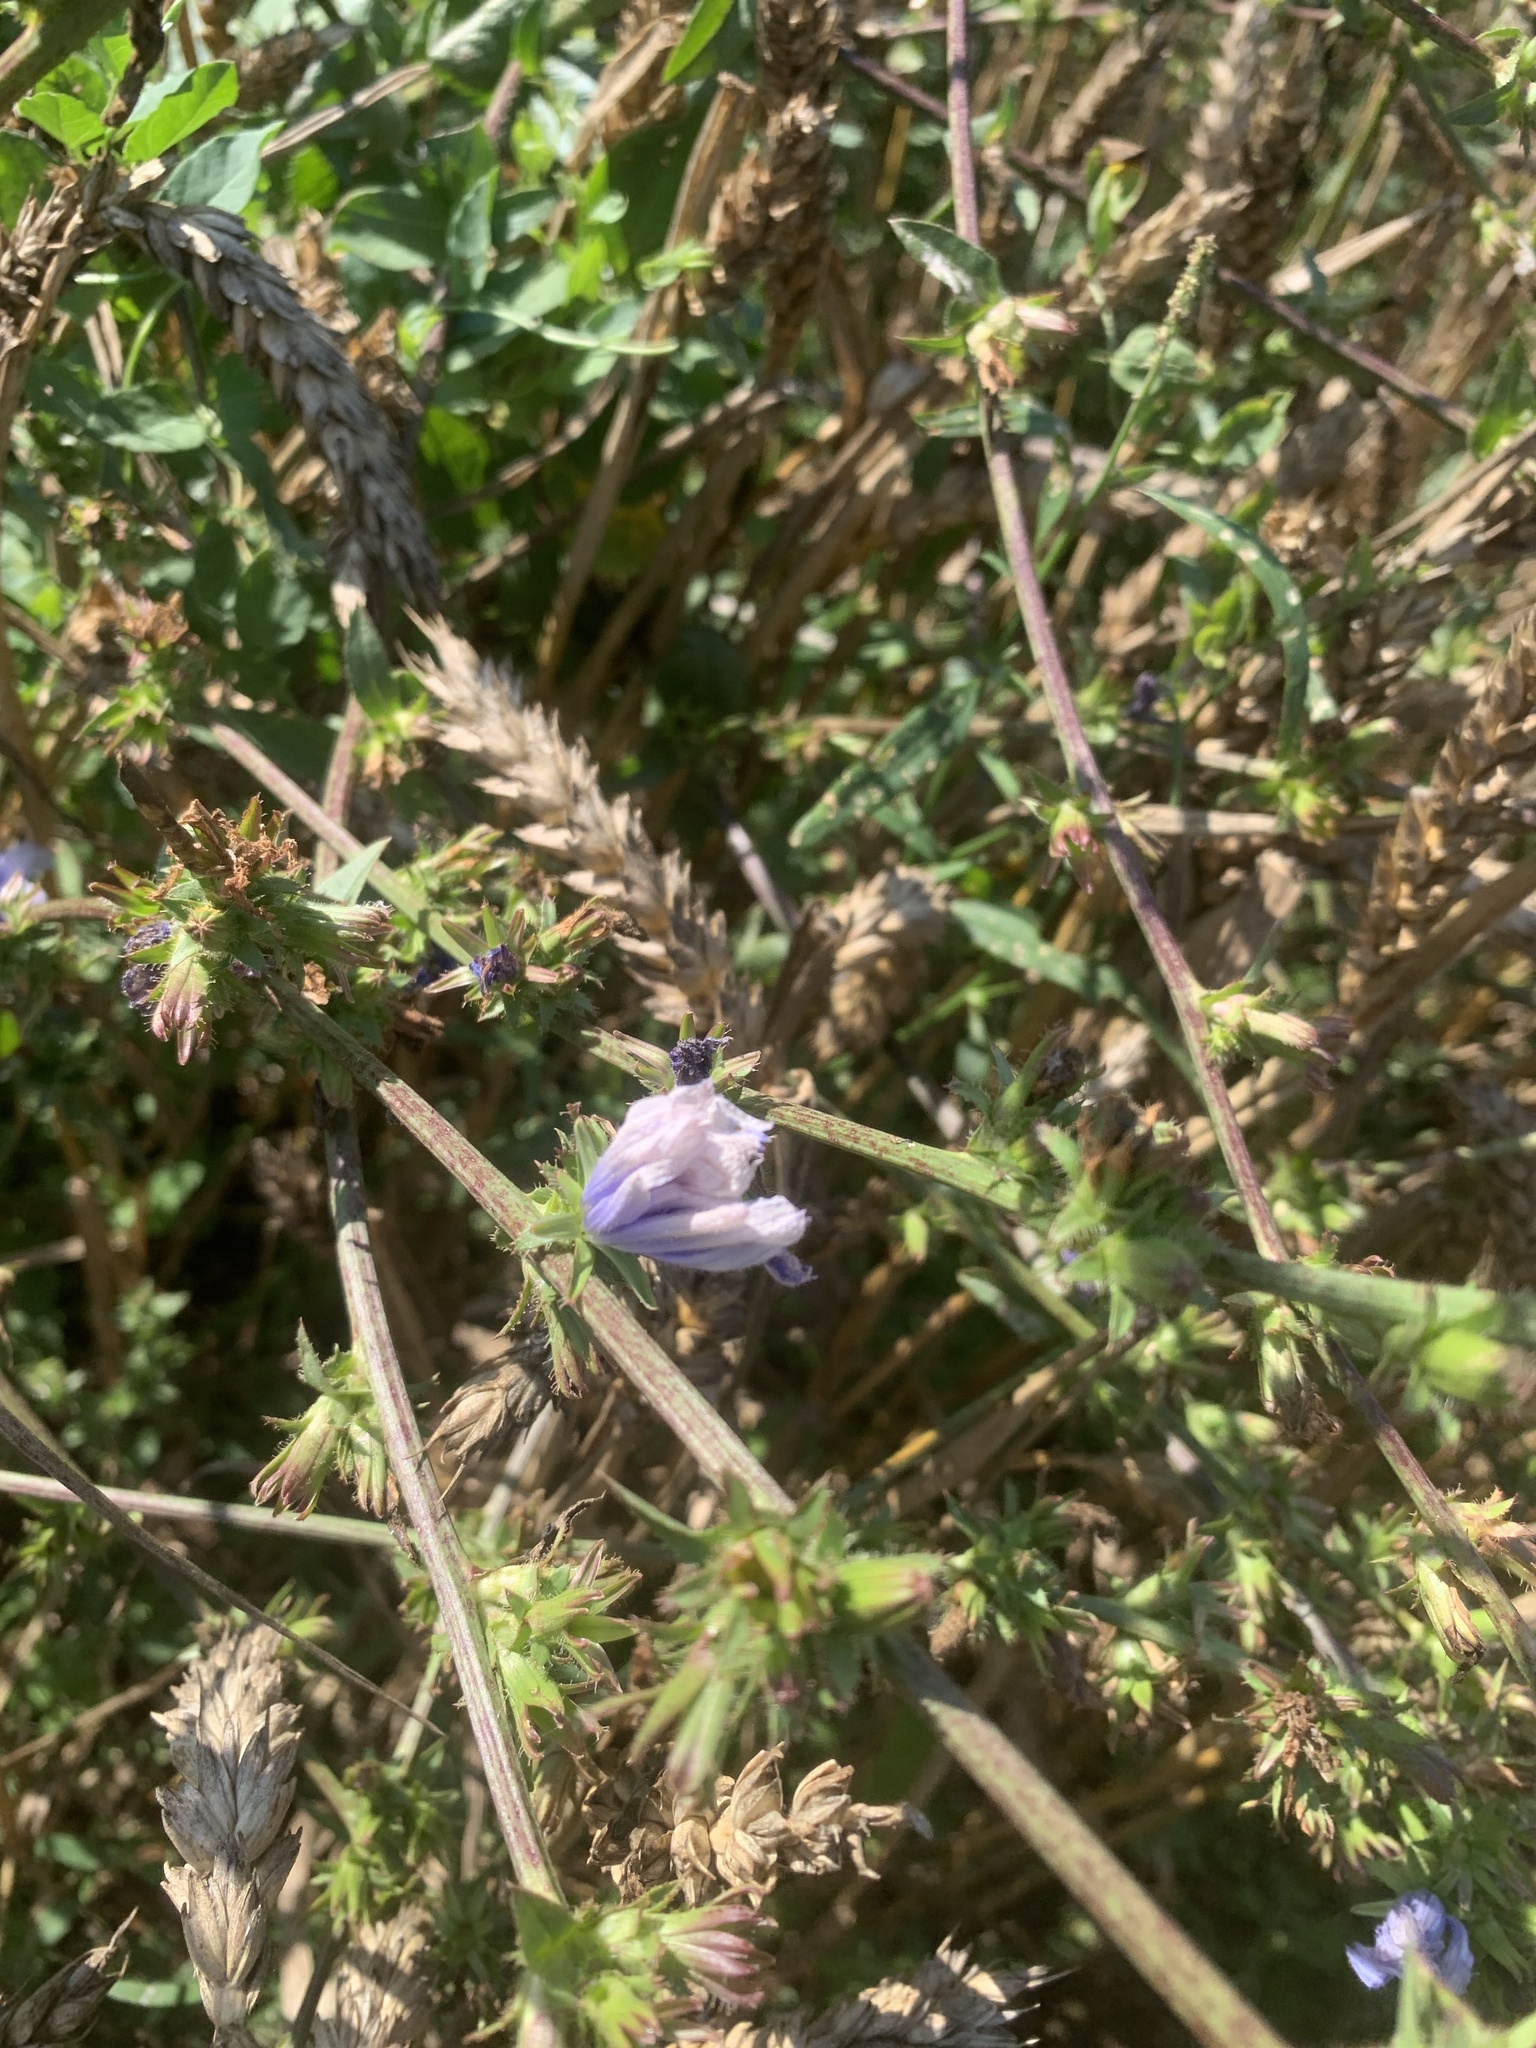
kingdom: Plantae
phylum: Tracheophyta
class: Magnoliopsida
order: Asterales
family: Asteraceae
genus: Cichorium
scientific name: Cichorium intybus
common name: Chicory
